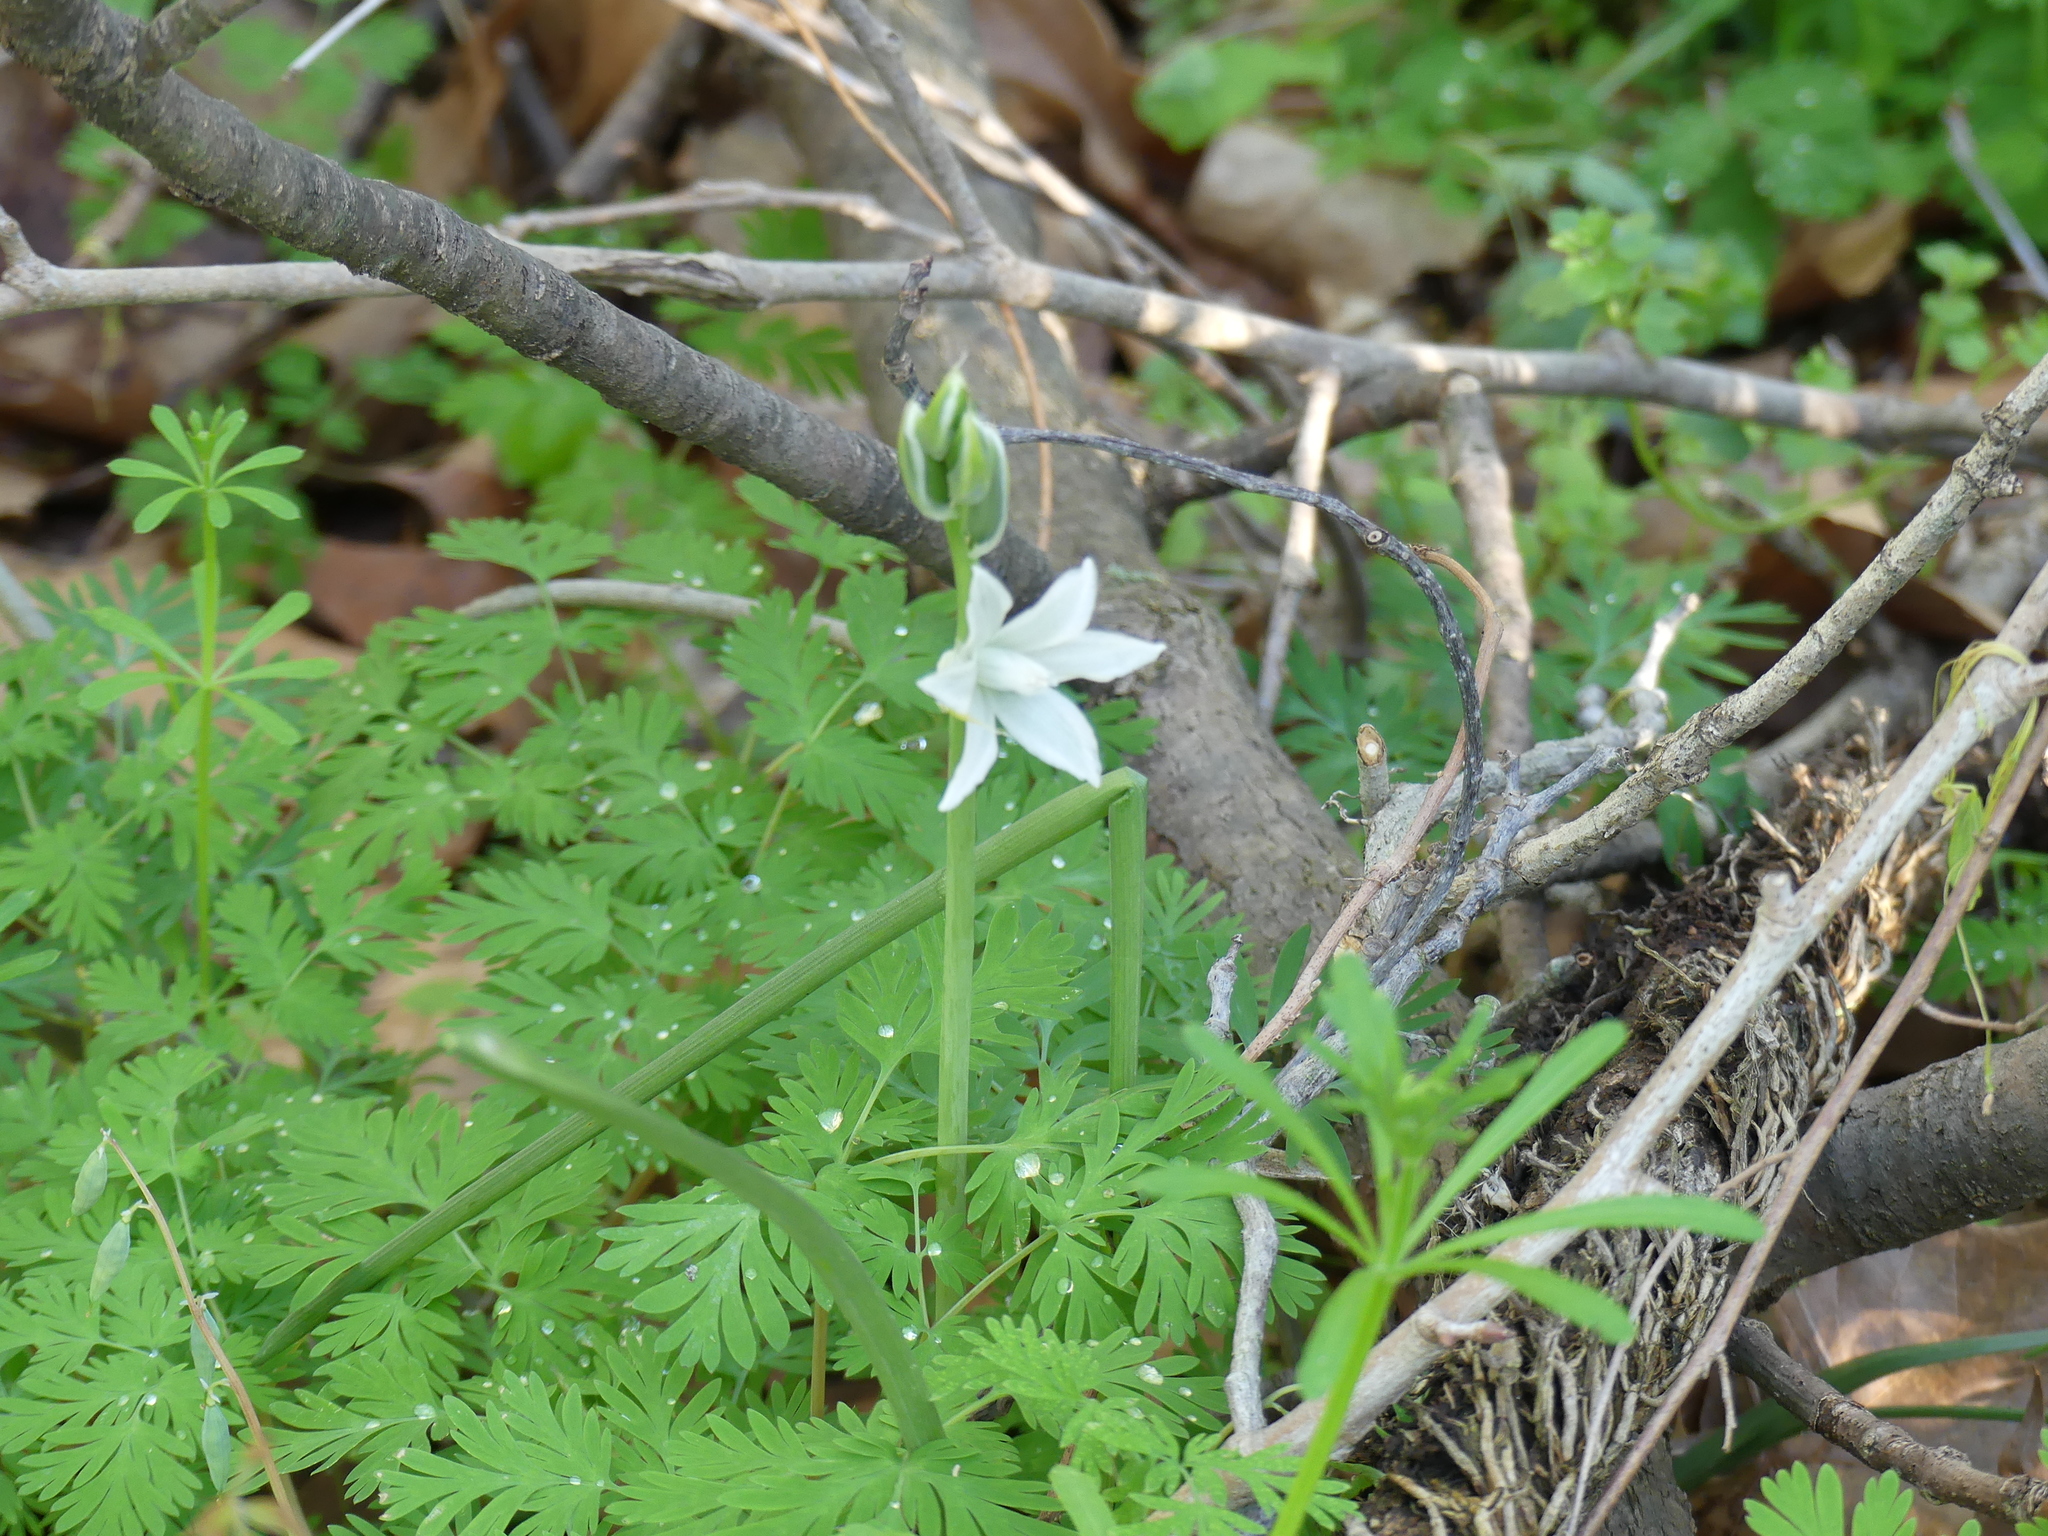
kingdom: Plantae
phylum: Tracheophyta
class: Liliopsida
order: Asparagales
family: Asparagaceae
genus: Ornithogalum
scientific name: Ornithogalum nutans
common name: Drooping star-of-bethlehem
